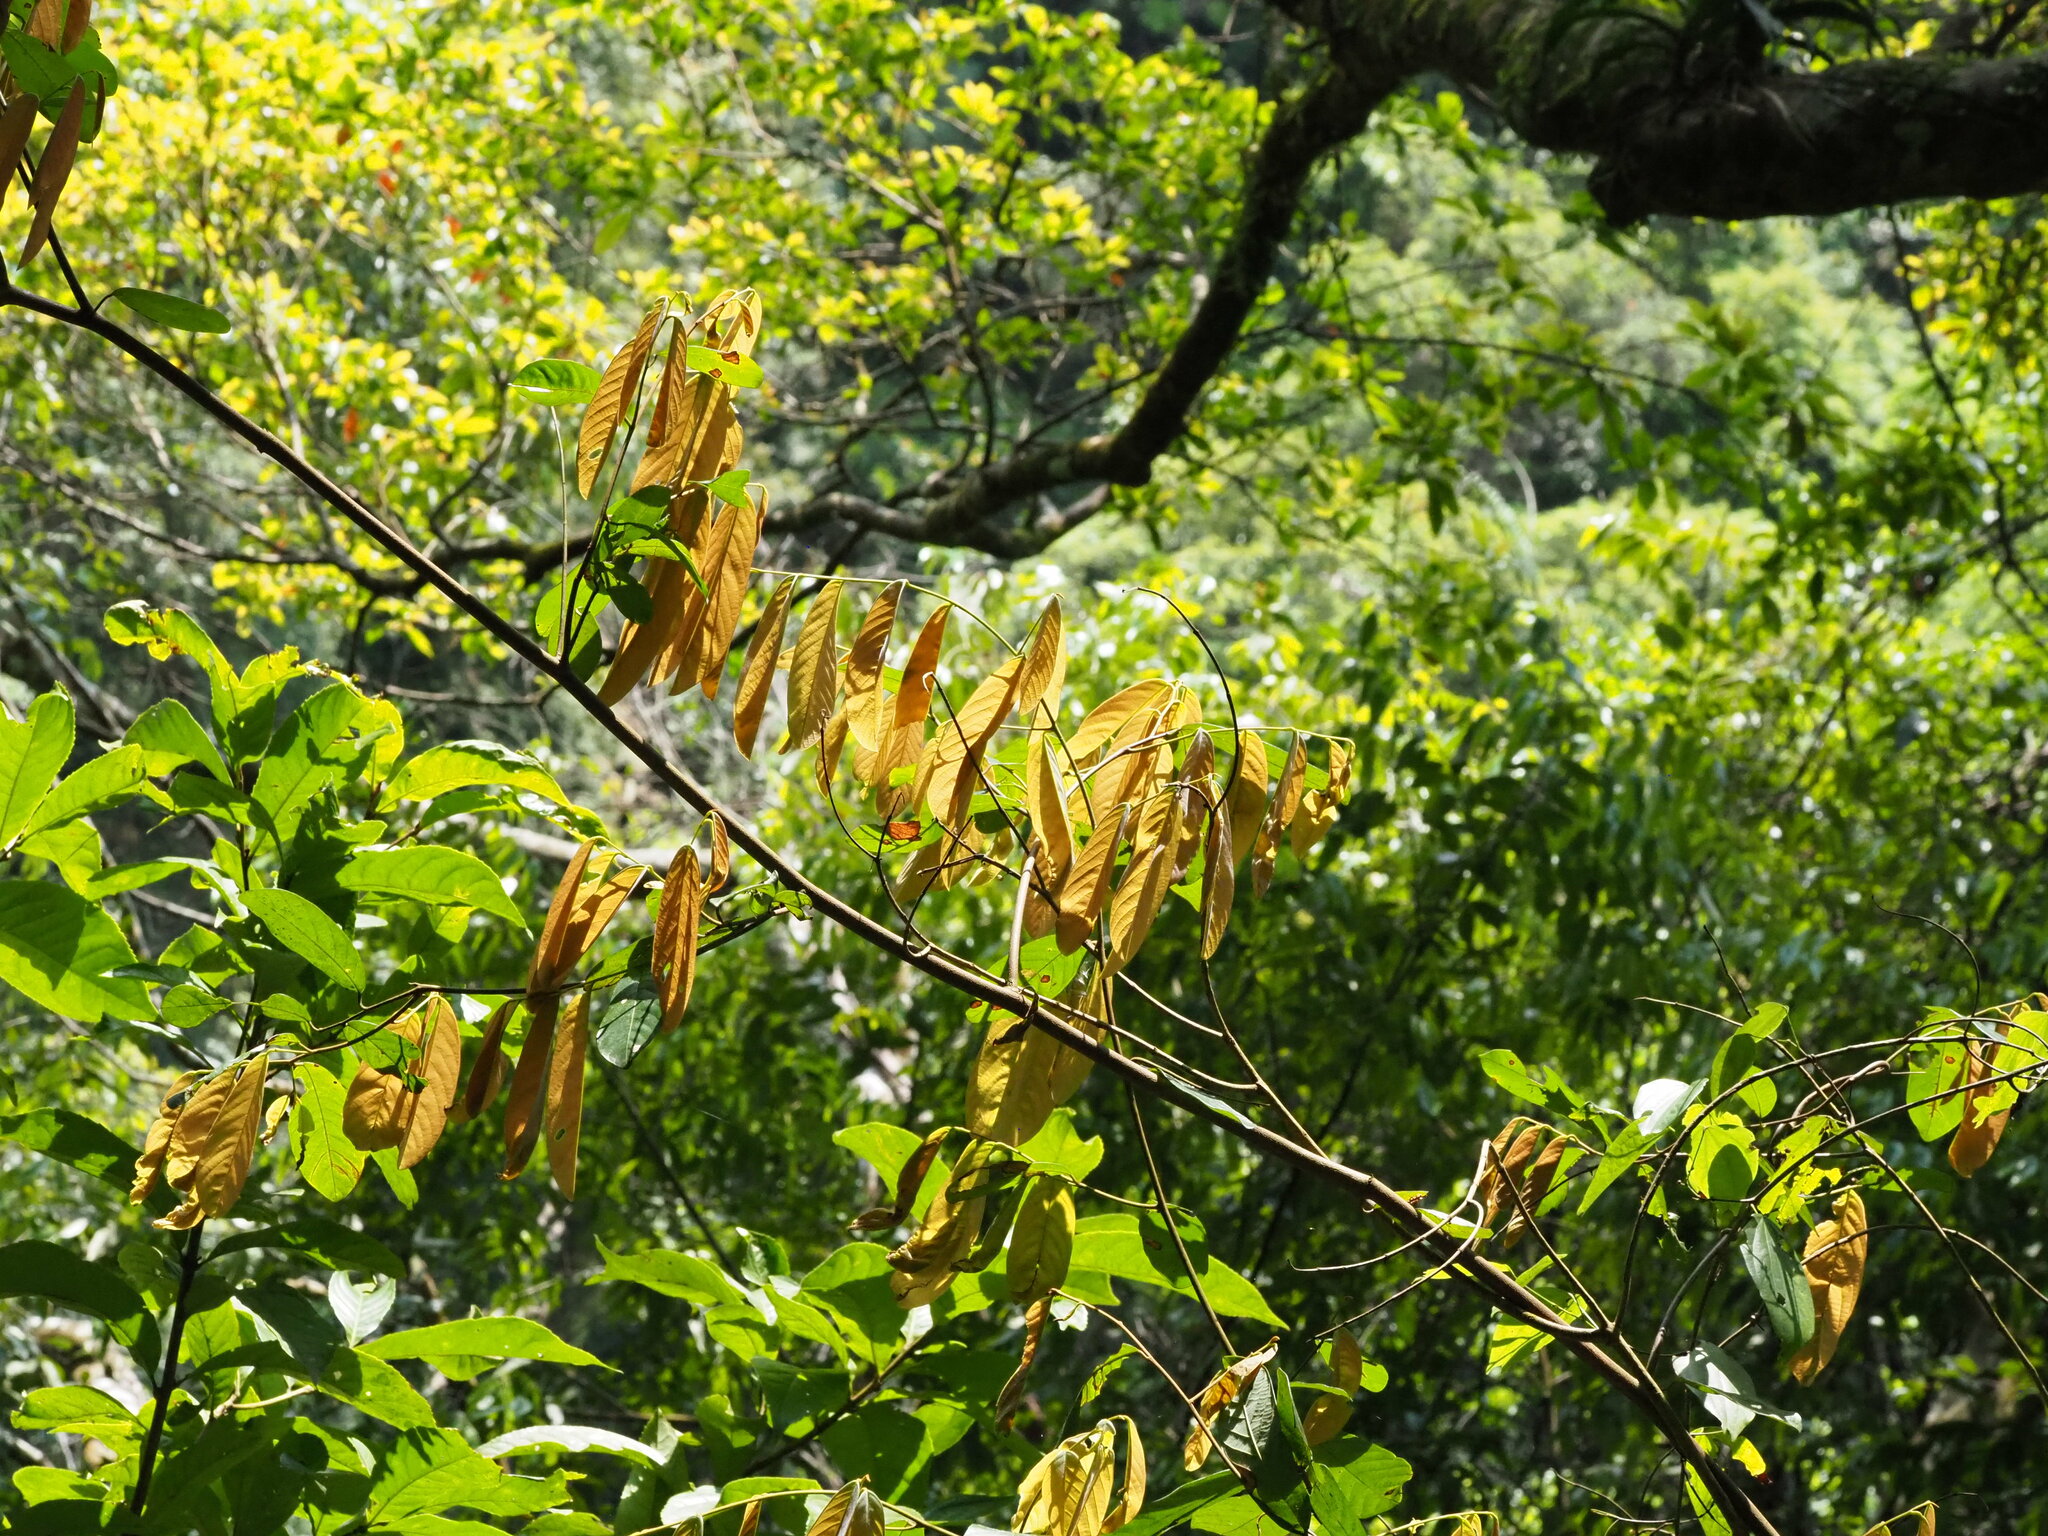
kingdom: Plantae
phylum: Tracheophyta
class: Magnoliopsida
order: Fabales
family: Fabaceae
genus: Millettia
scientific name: Millettia pachycarpa
